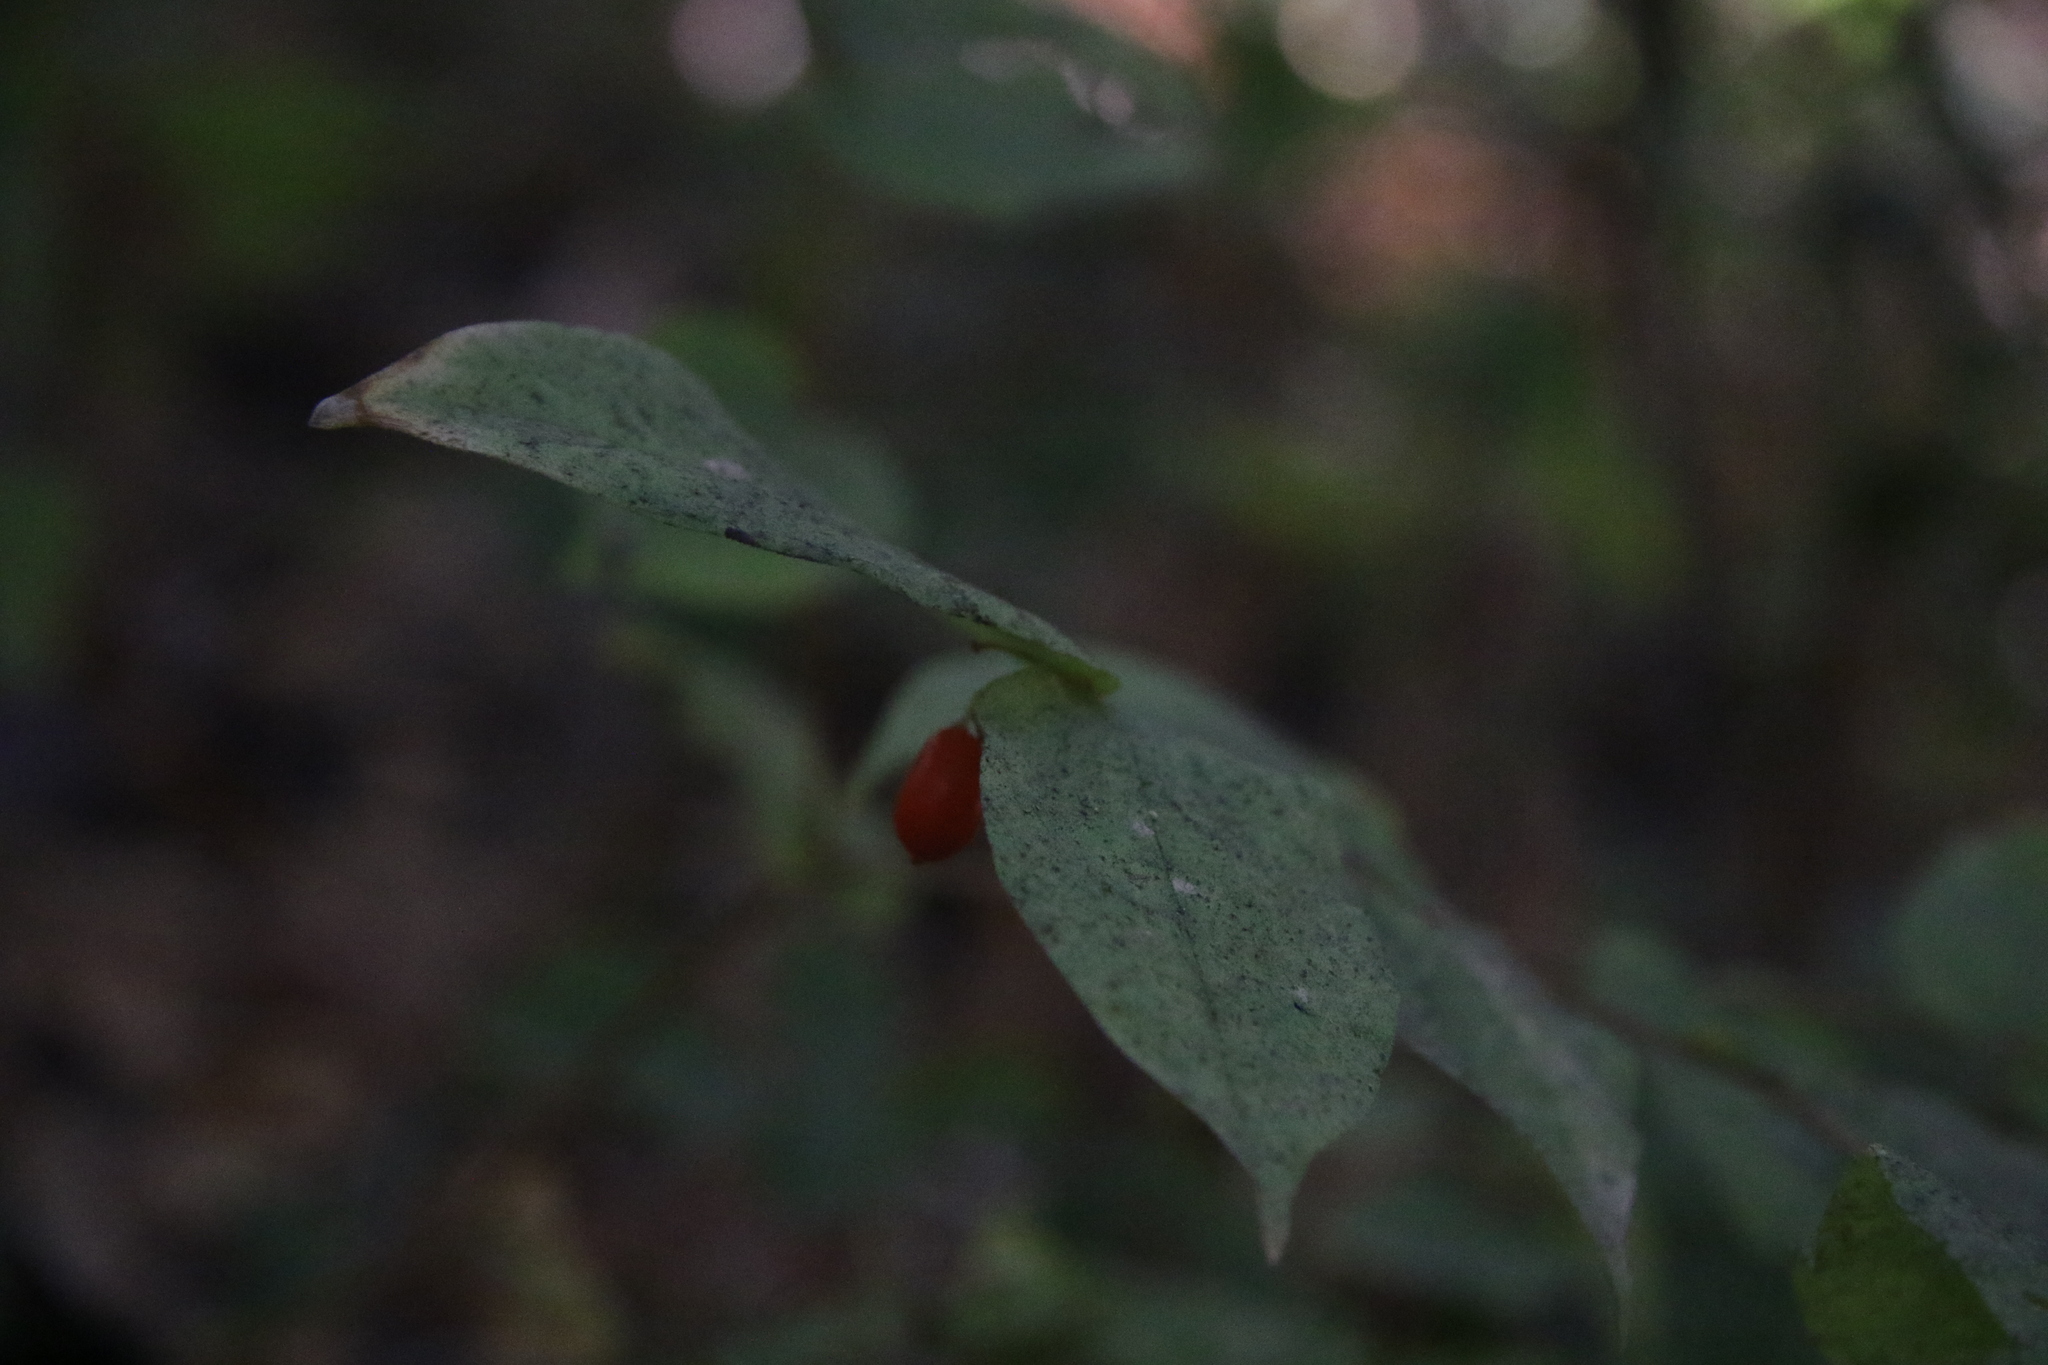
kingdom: Plantae
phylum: Tracheophyta
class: Liliopsida
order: Liliales
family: Liliaceae
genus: Prosartes
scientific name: Prosartes hookeri
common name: Fairy-bells
